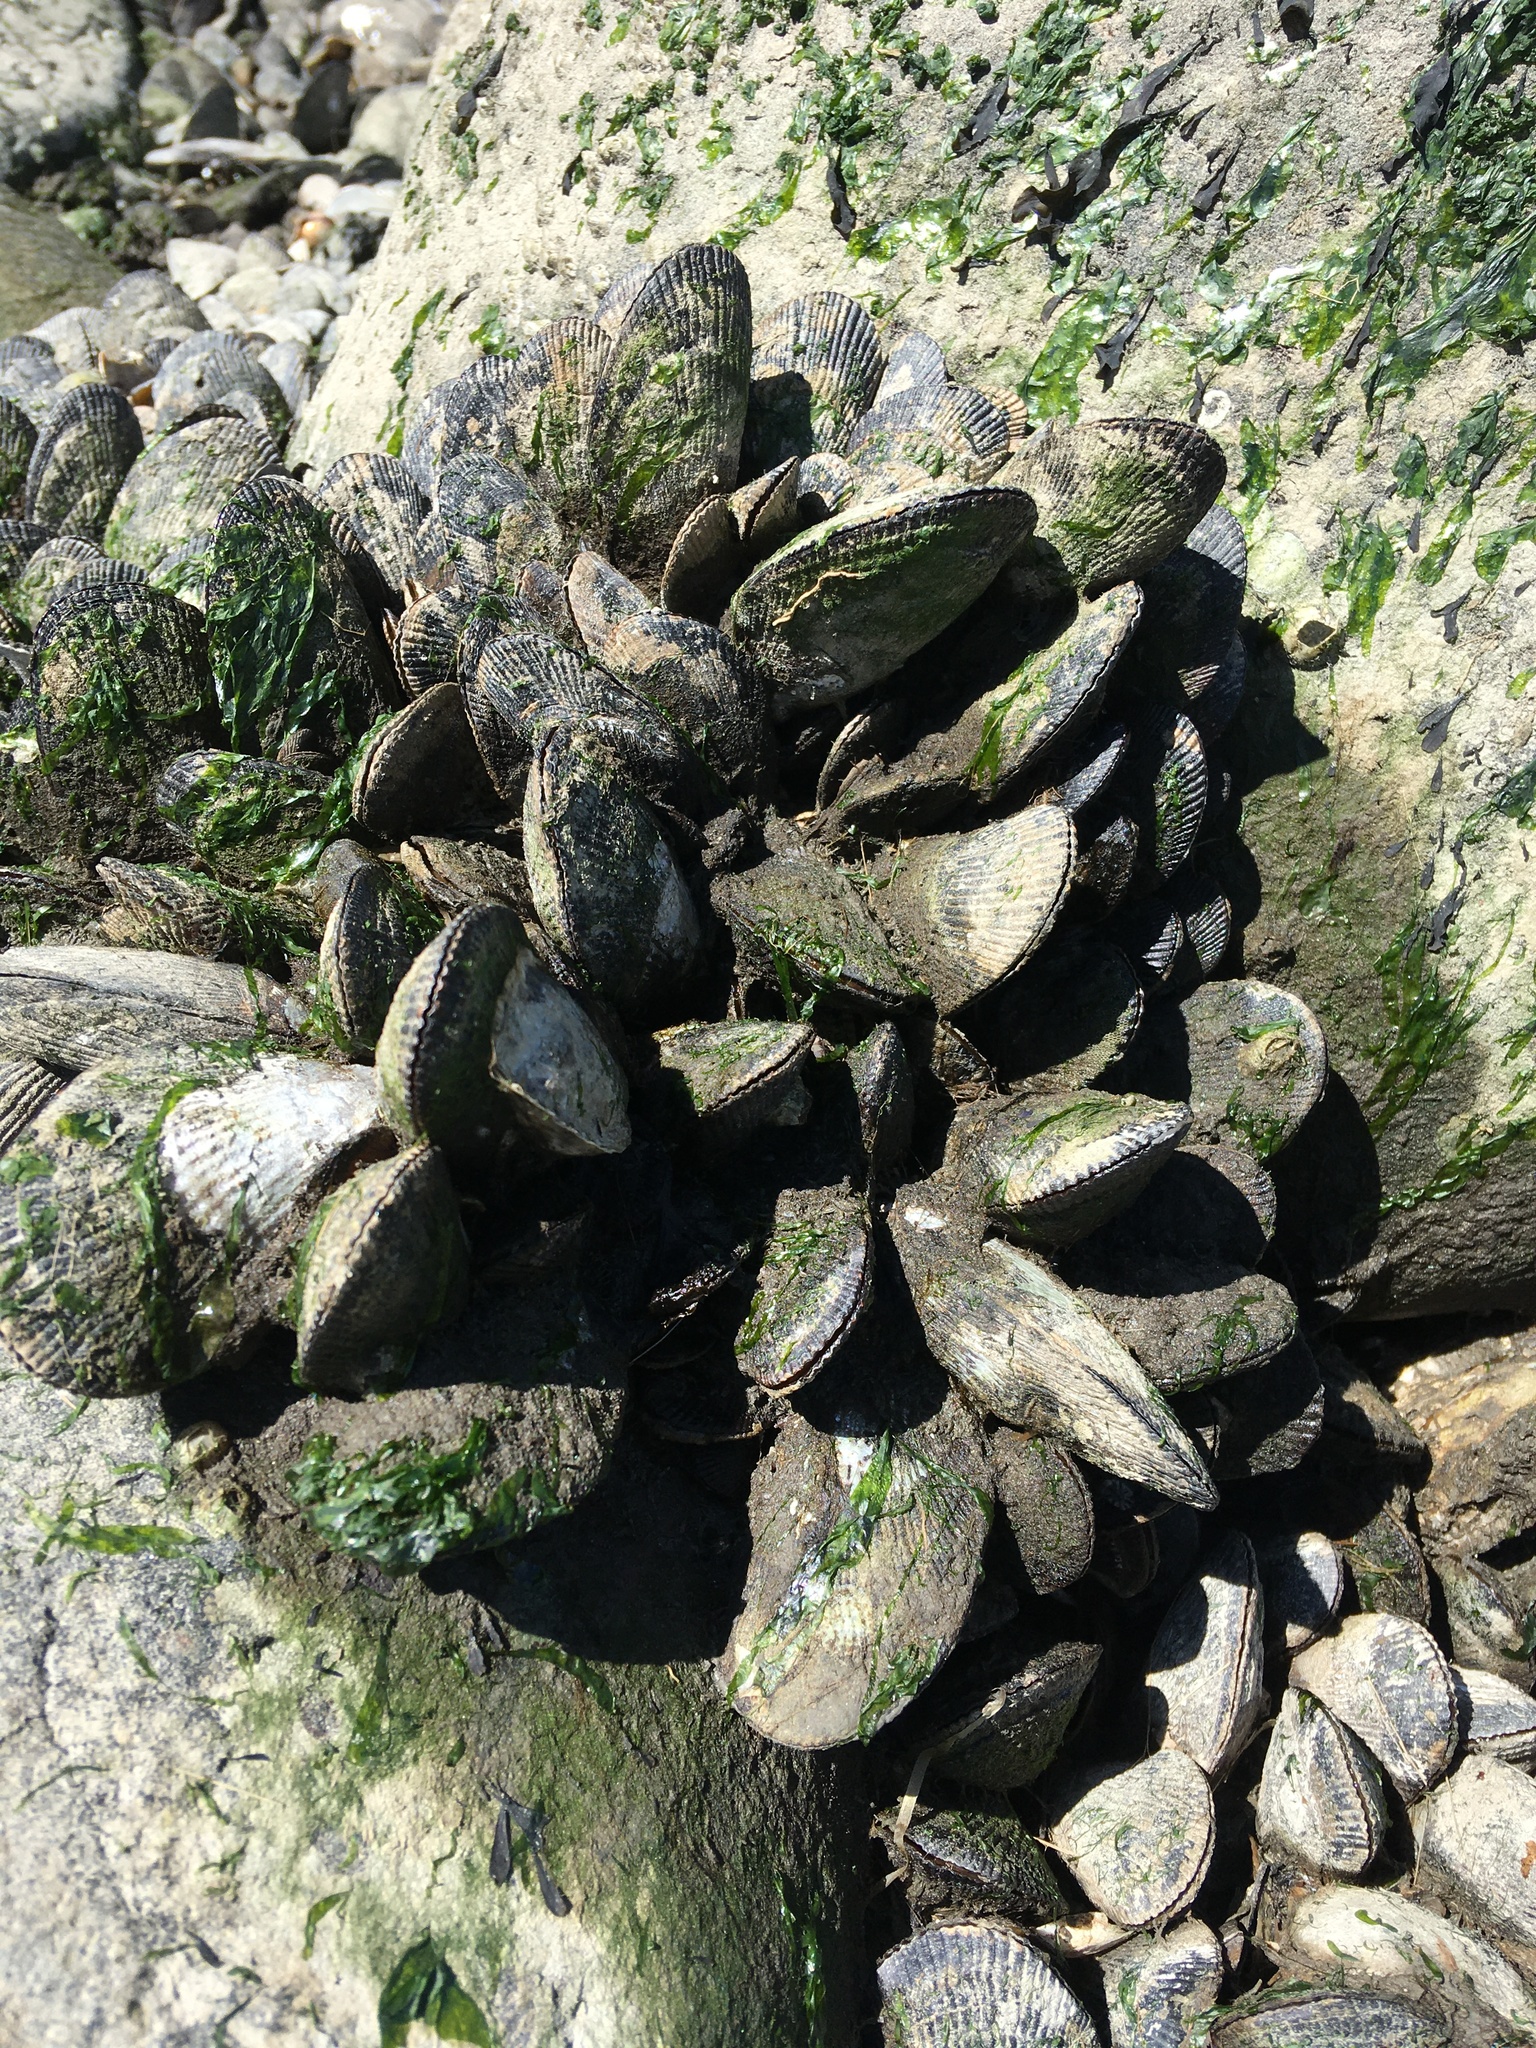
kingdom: Animalia
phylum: Mollusca
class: Bivalvia
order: Mytilida
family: Mytilidae
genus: Geukensia
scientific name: Geukensia demissa
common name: Ribbed mussel
